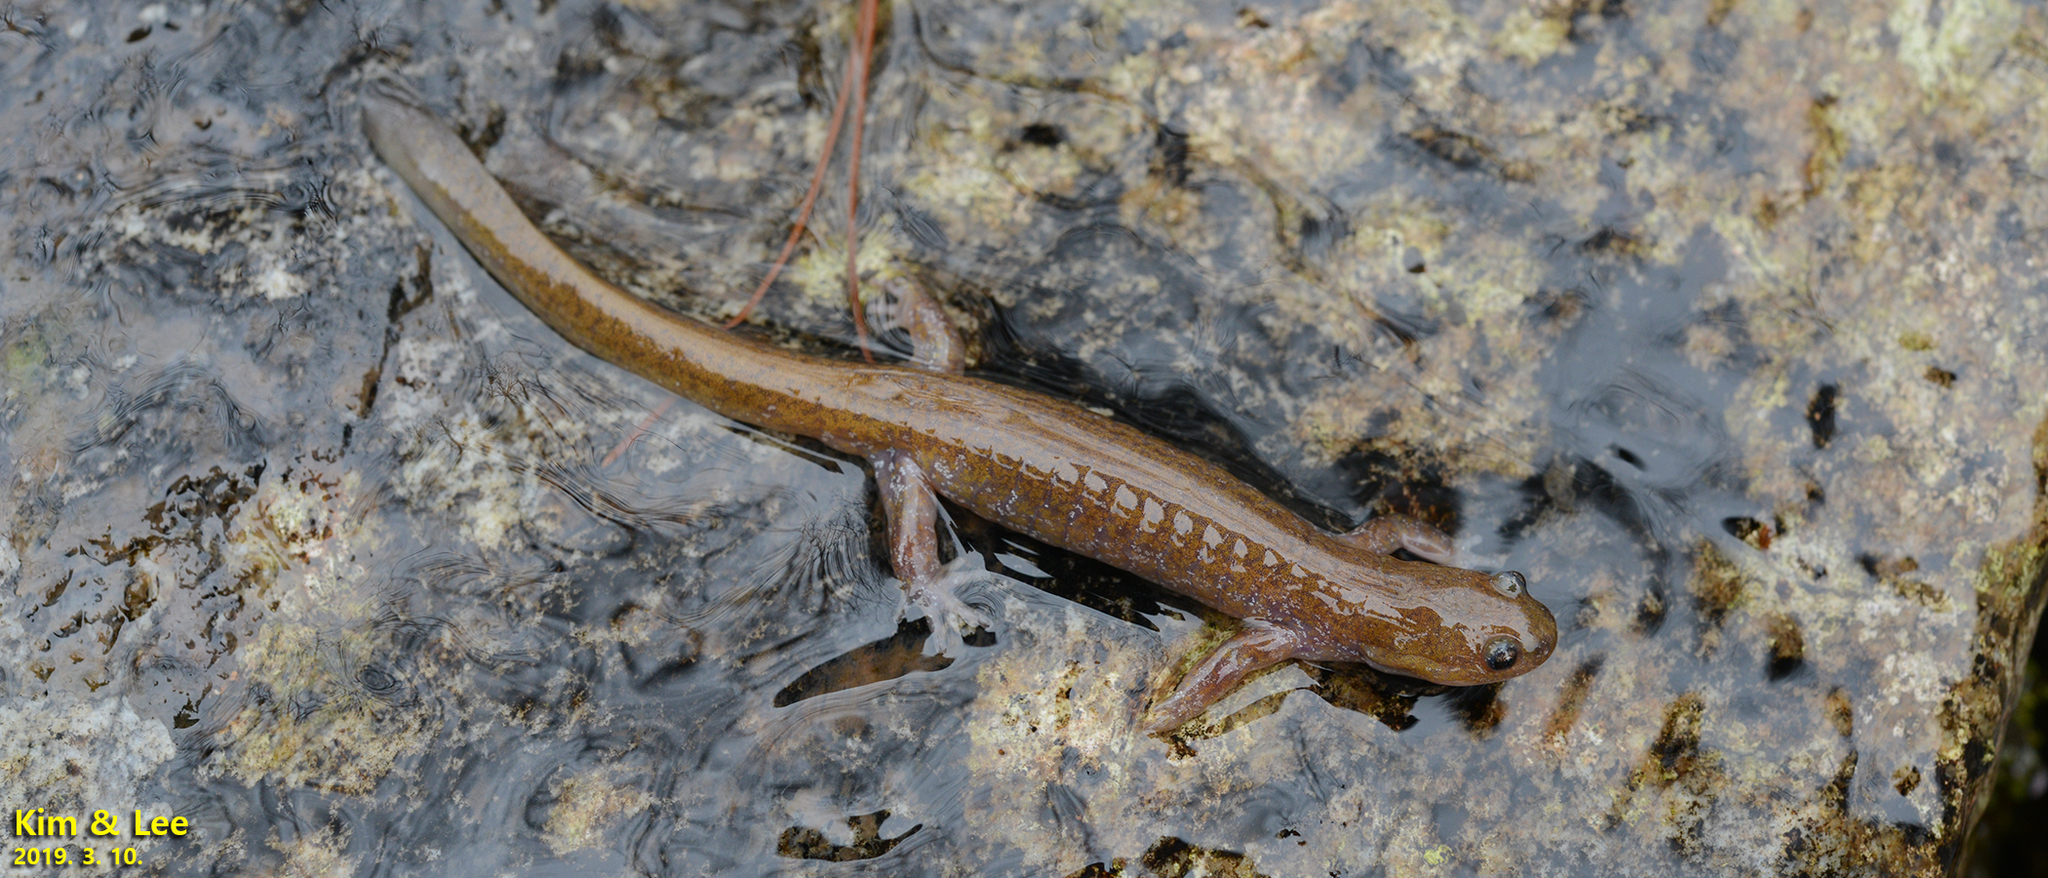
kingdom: Animalia
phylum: Chordata
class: Amphibia
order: Caudata
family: Hynobiidae
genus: Hynobius
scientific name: Hynobius notialis
